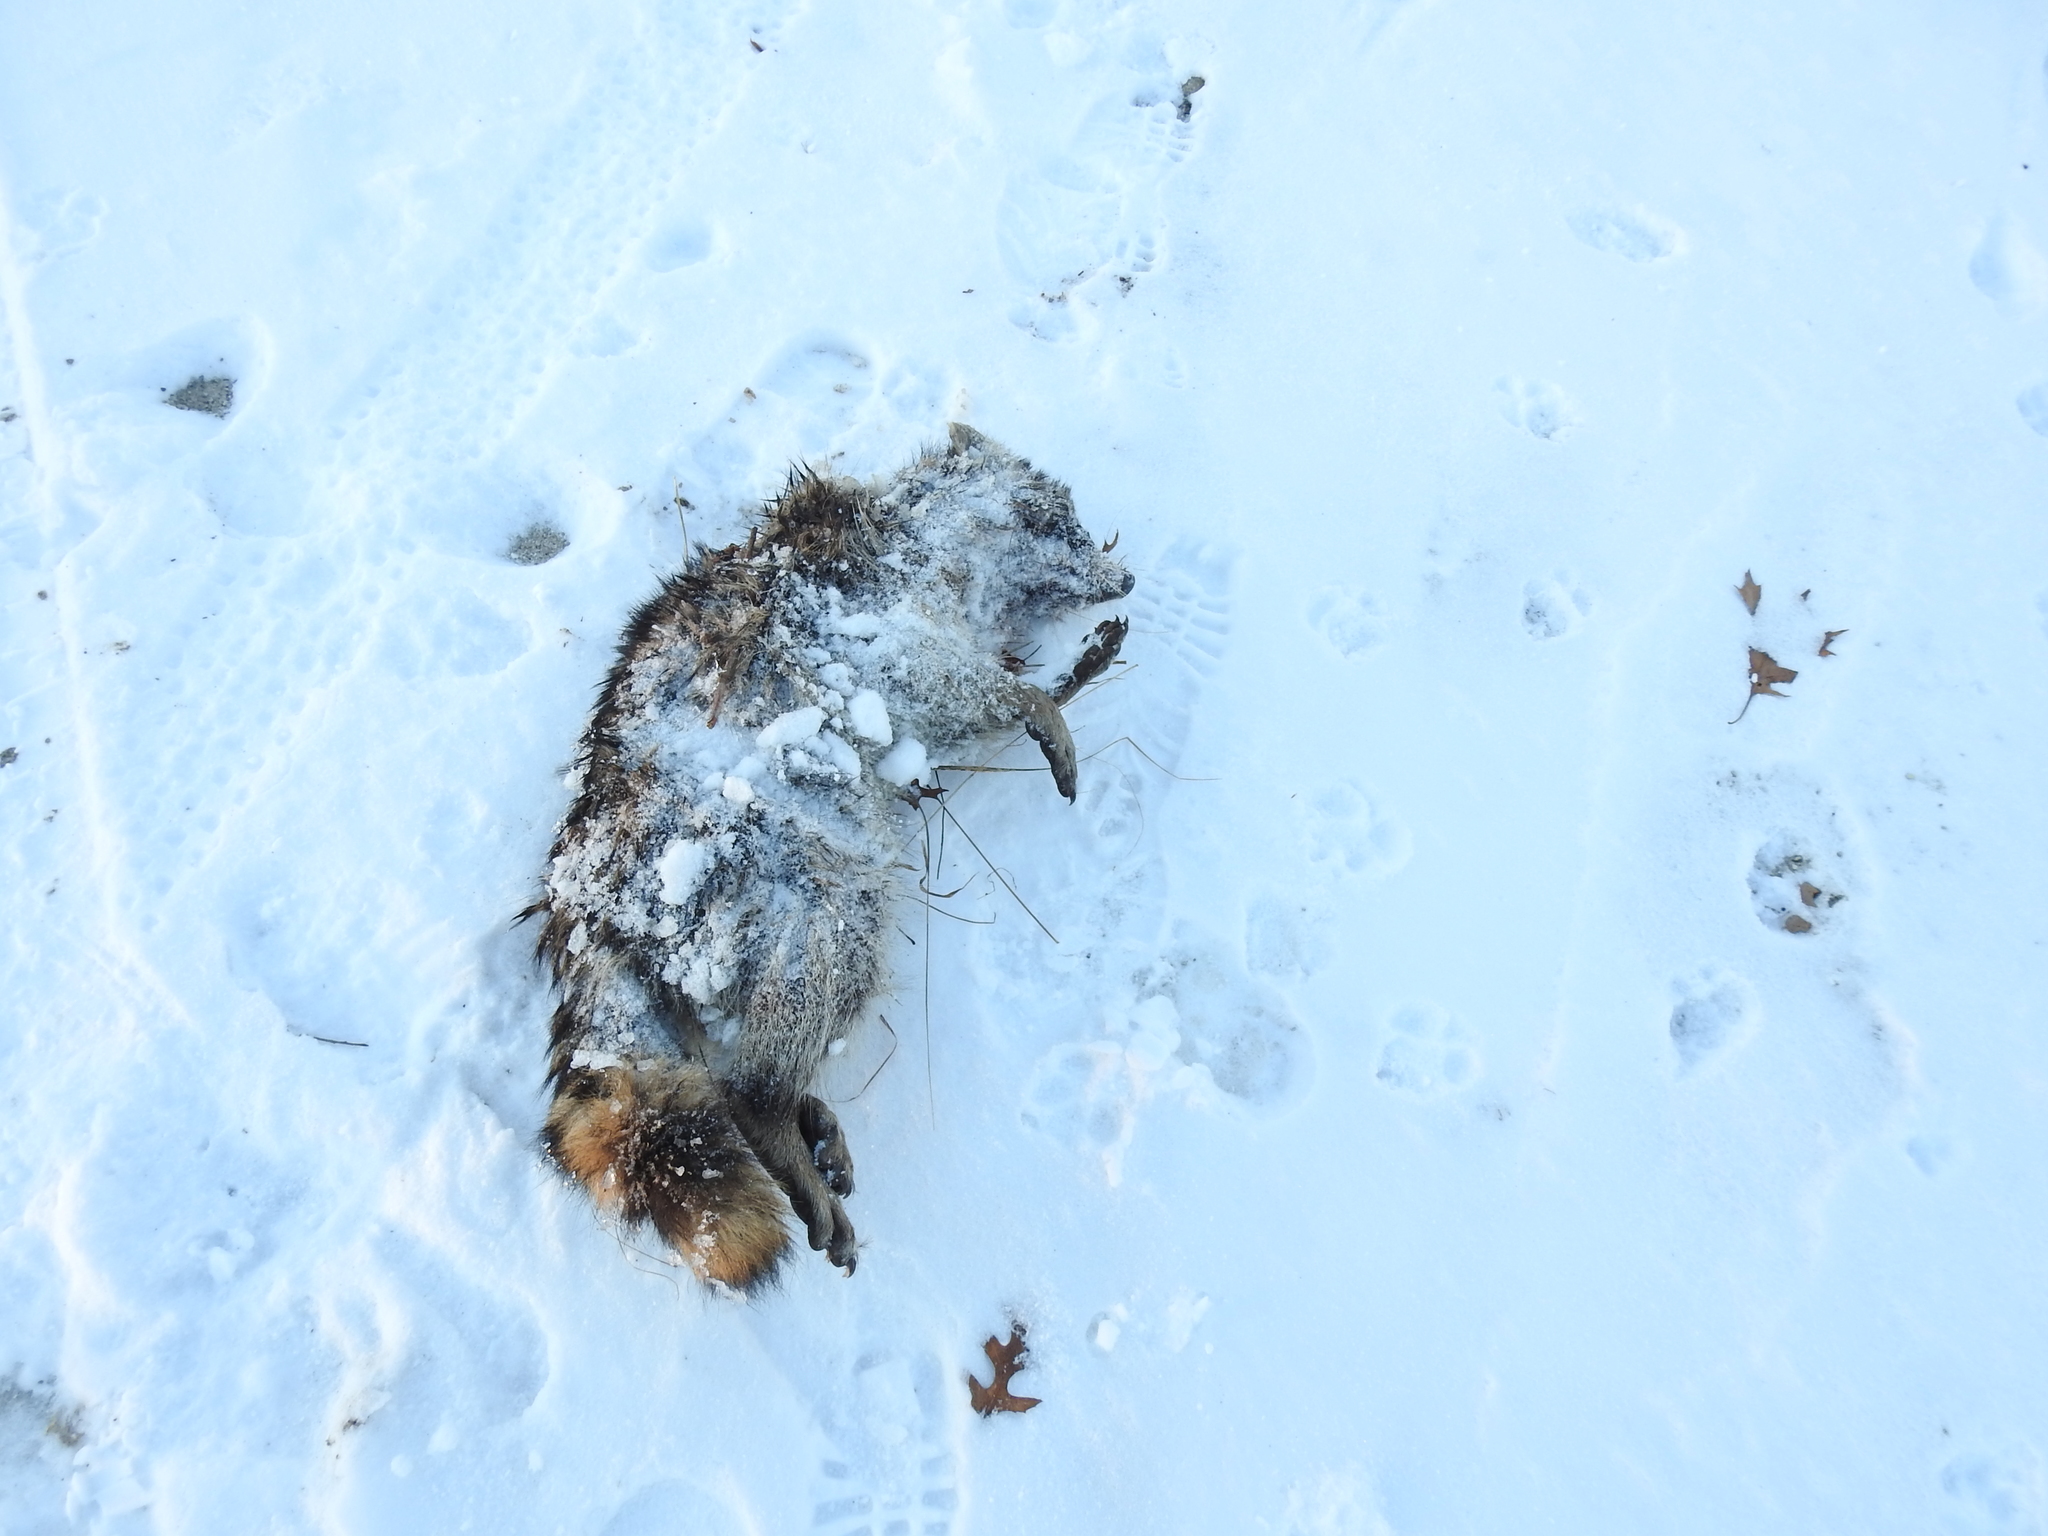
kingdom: Animalia
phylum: Chordata
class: Mammalia
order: Carnivora
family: Procyonidae
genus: Procyon
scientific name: Procyon lotor
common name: Raccoon
